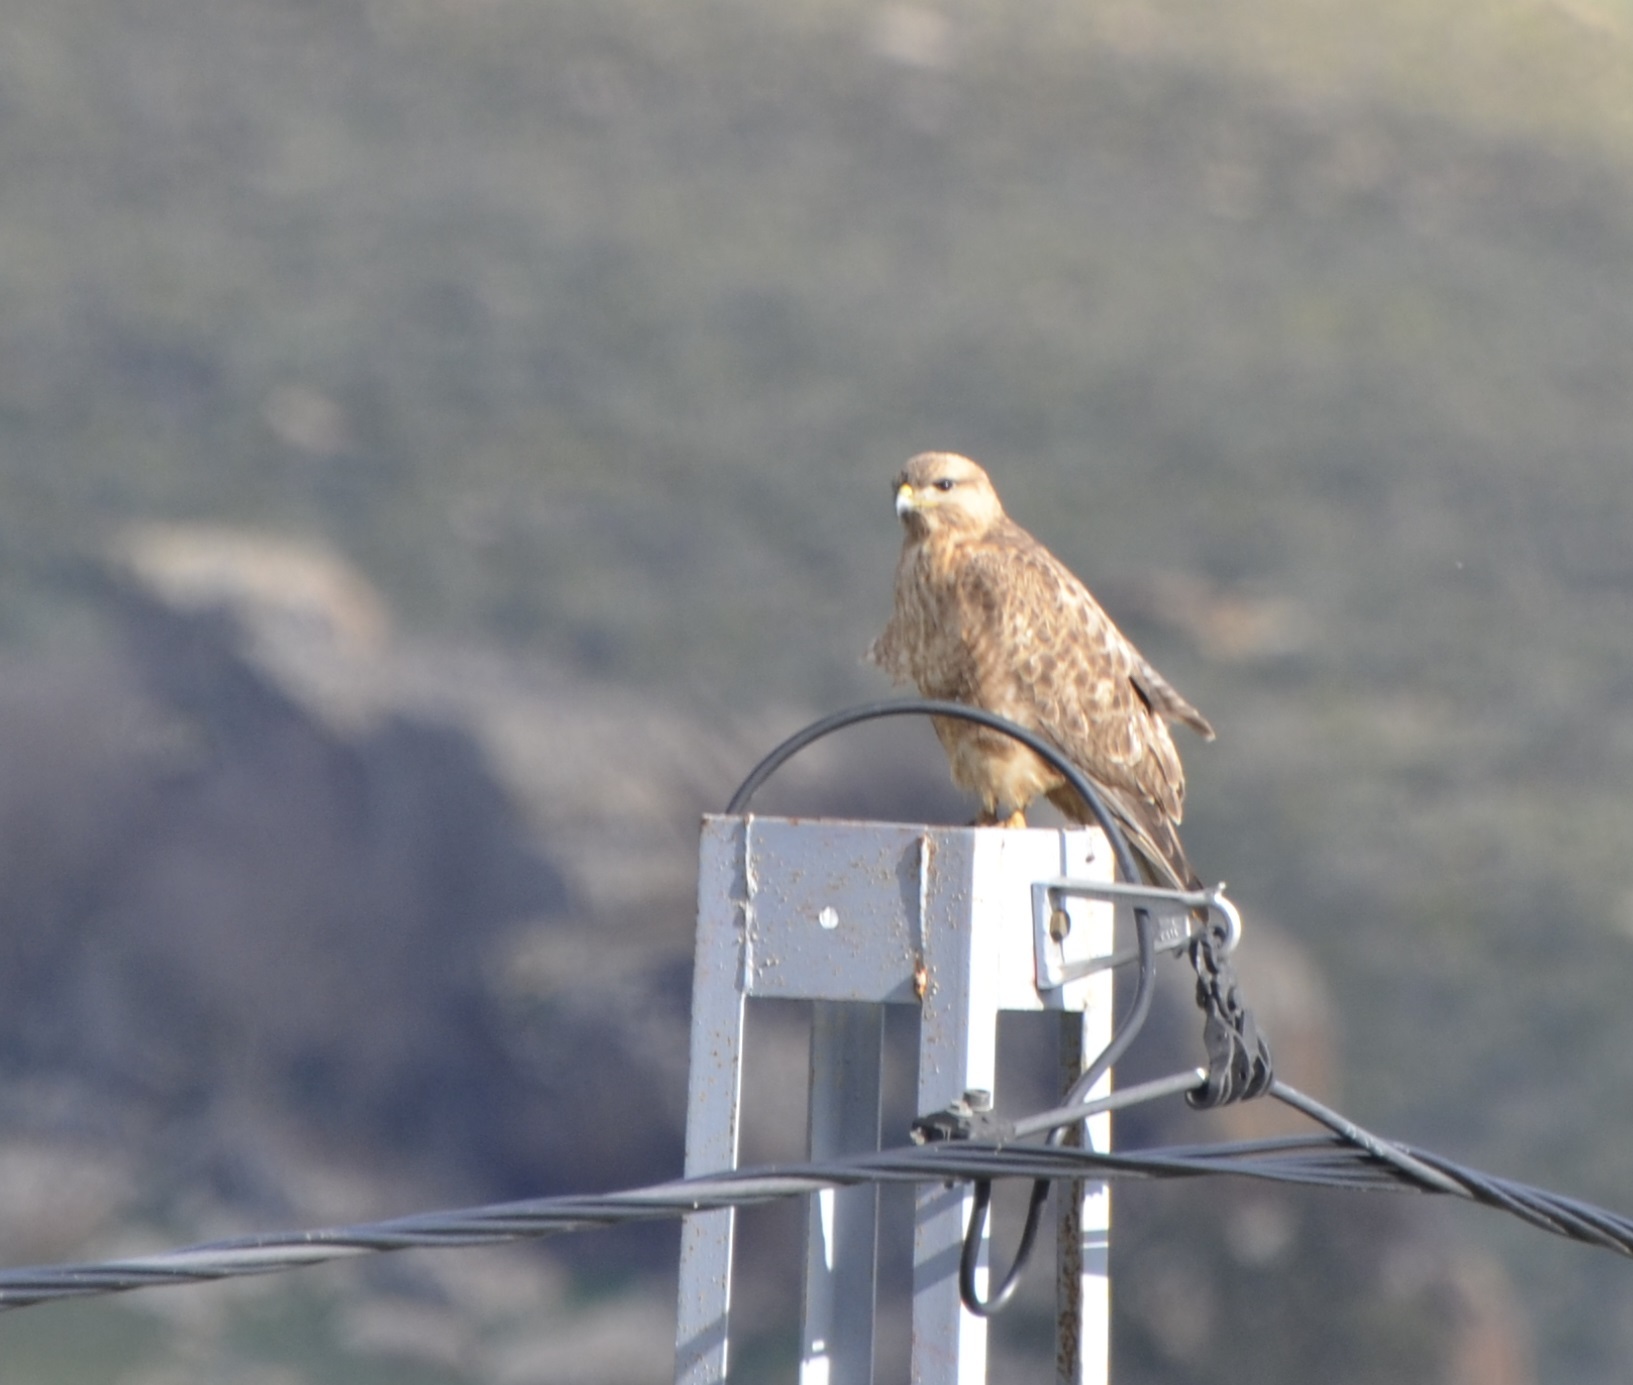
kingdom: Animalia
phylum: Chordata
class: Aves
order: Accipitriformes
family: Accipitridae
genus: Buteo
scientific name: Buteo rufinus
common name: Long-legged buzzard
